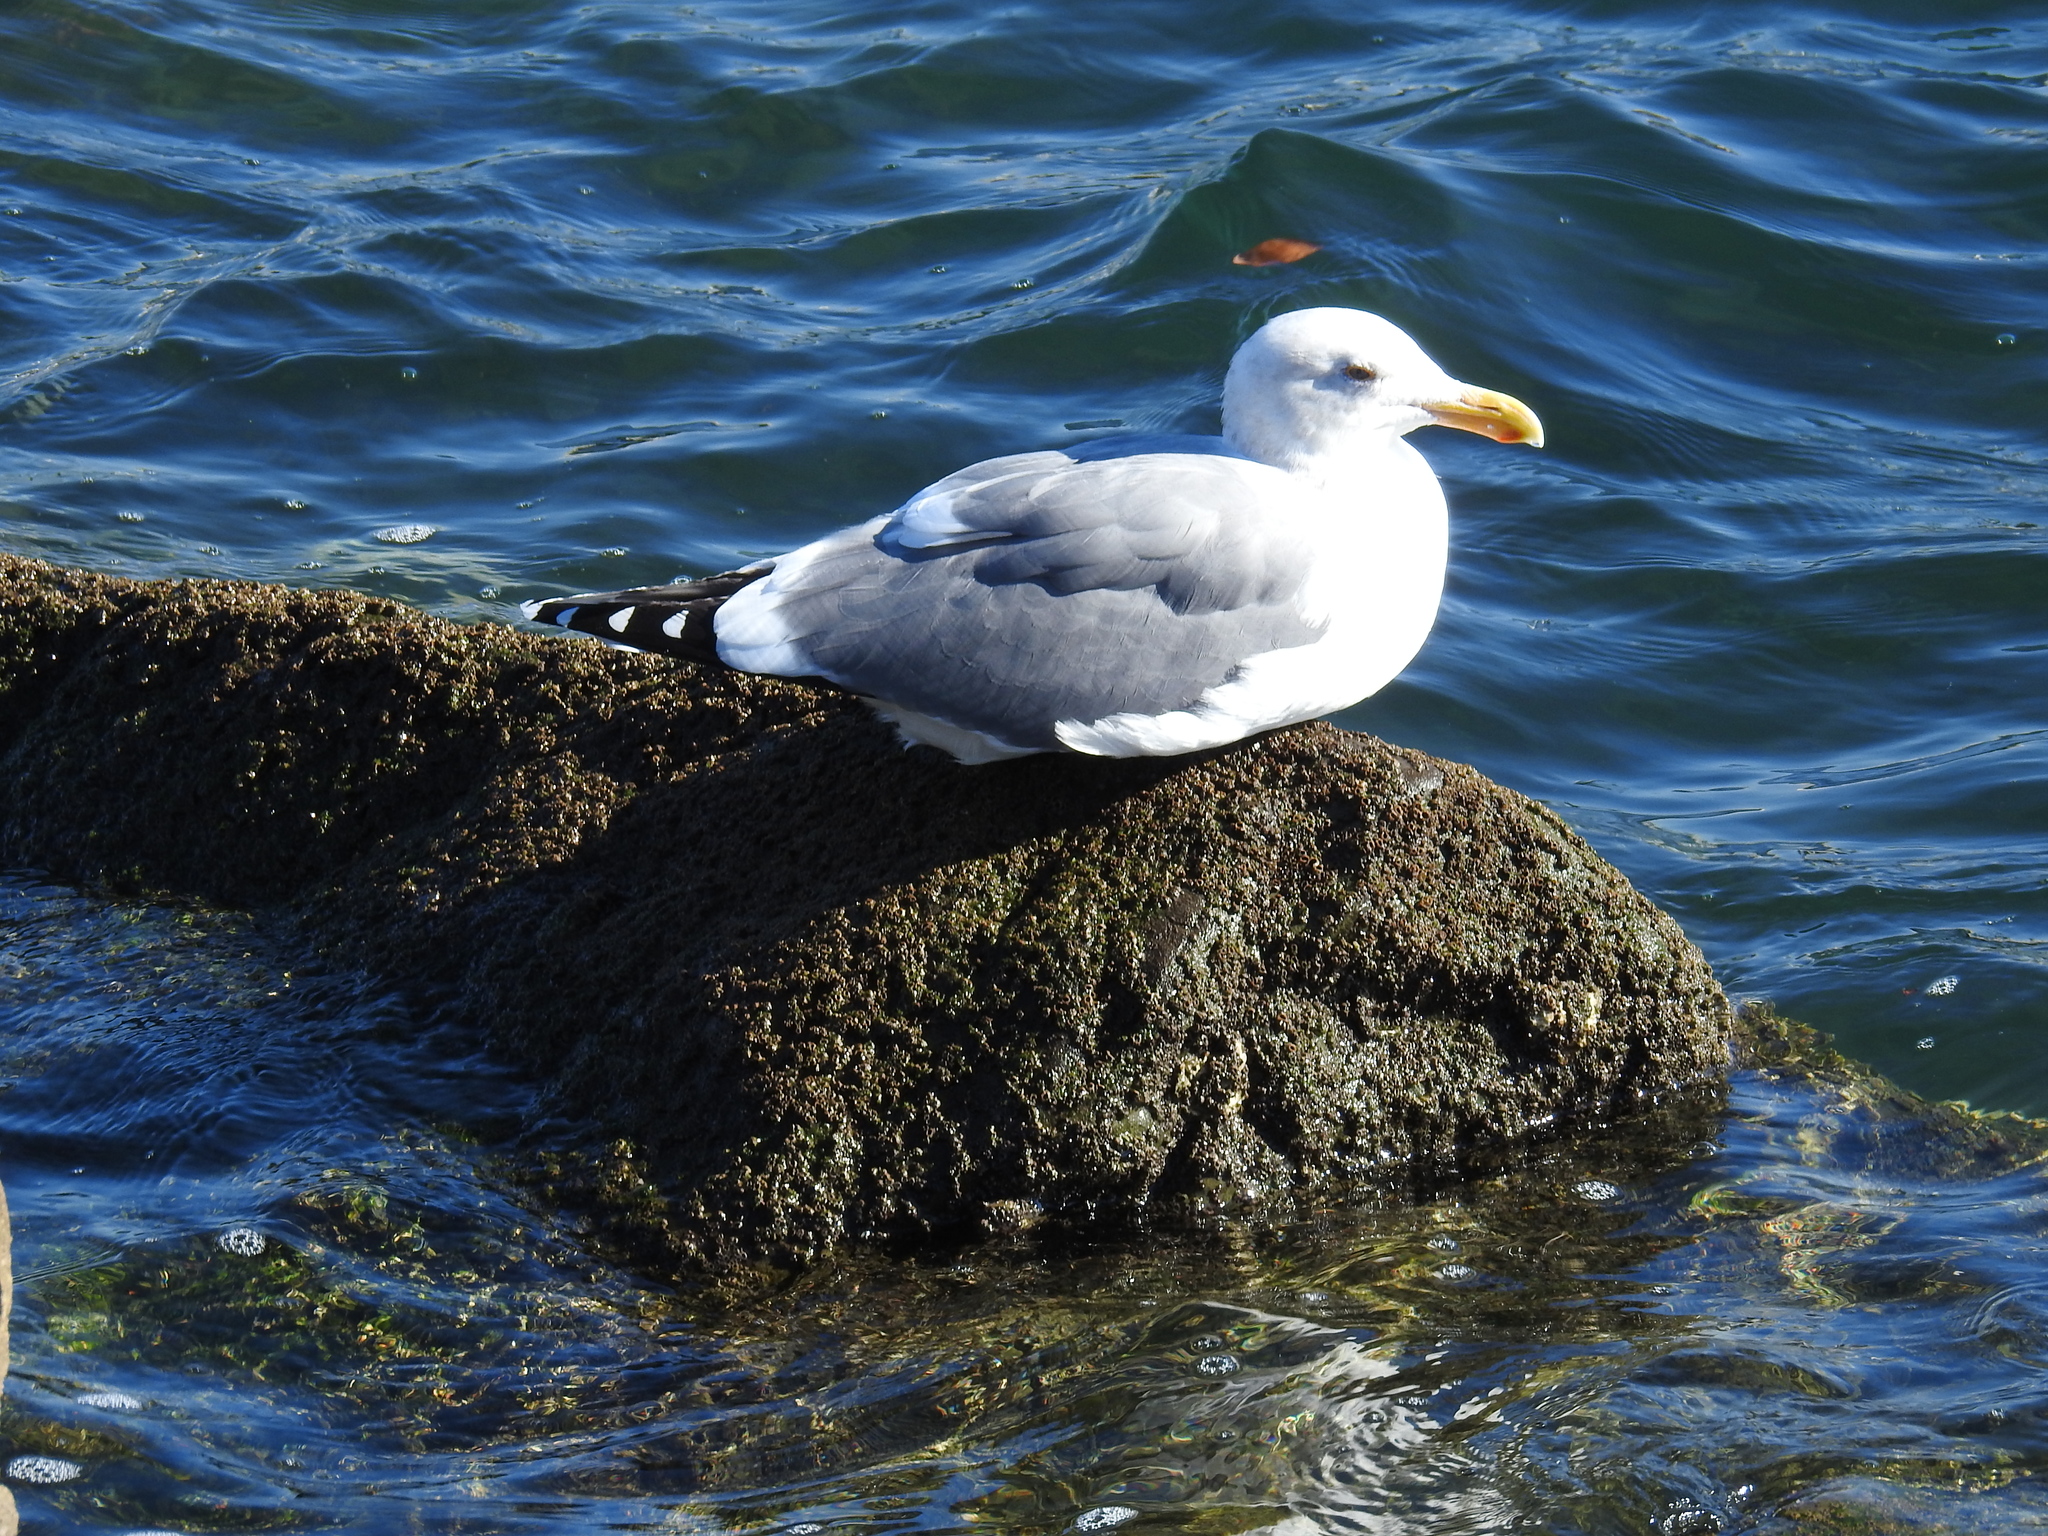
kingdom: Animalia
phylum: Chordata
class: Aves
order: Charadriiformes
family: Laridae
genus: Larus
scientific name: Larus occidentalis
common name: Western gull
